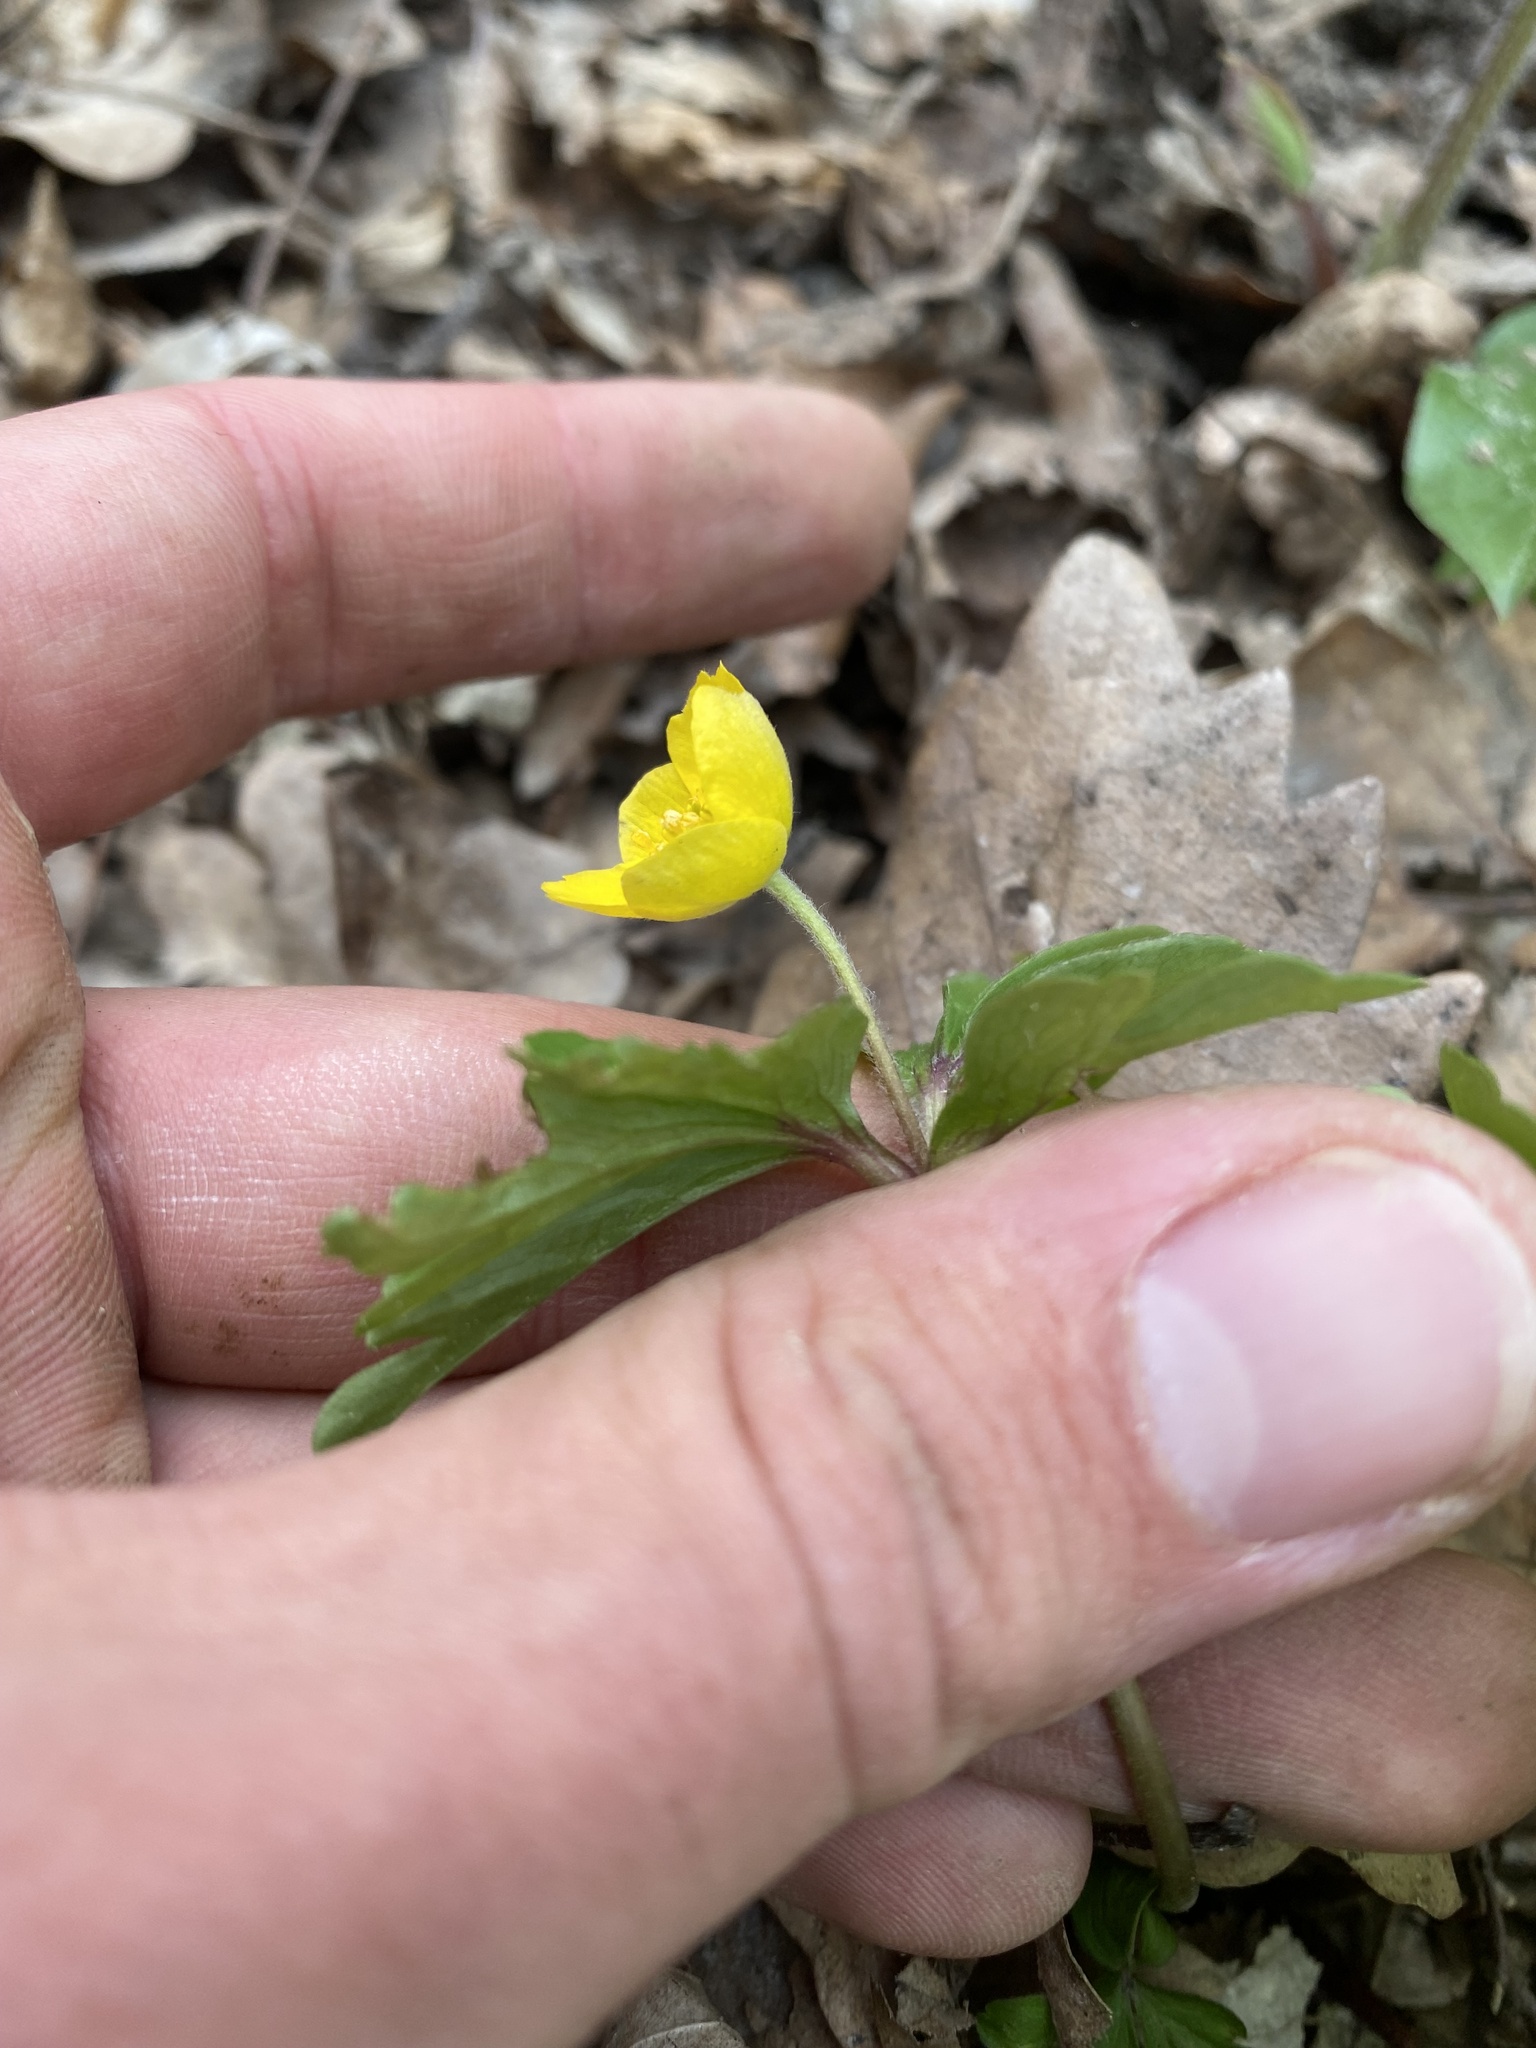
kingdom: Plantae
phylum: Tracheophyta
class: Magnoliopsida
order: Ranunculales
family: Ranunculaceae
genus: Anemone
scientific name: Anemone ranunculoides
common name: Yellow anemone
